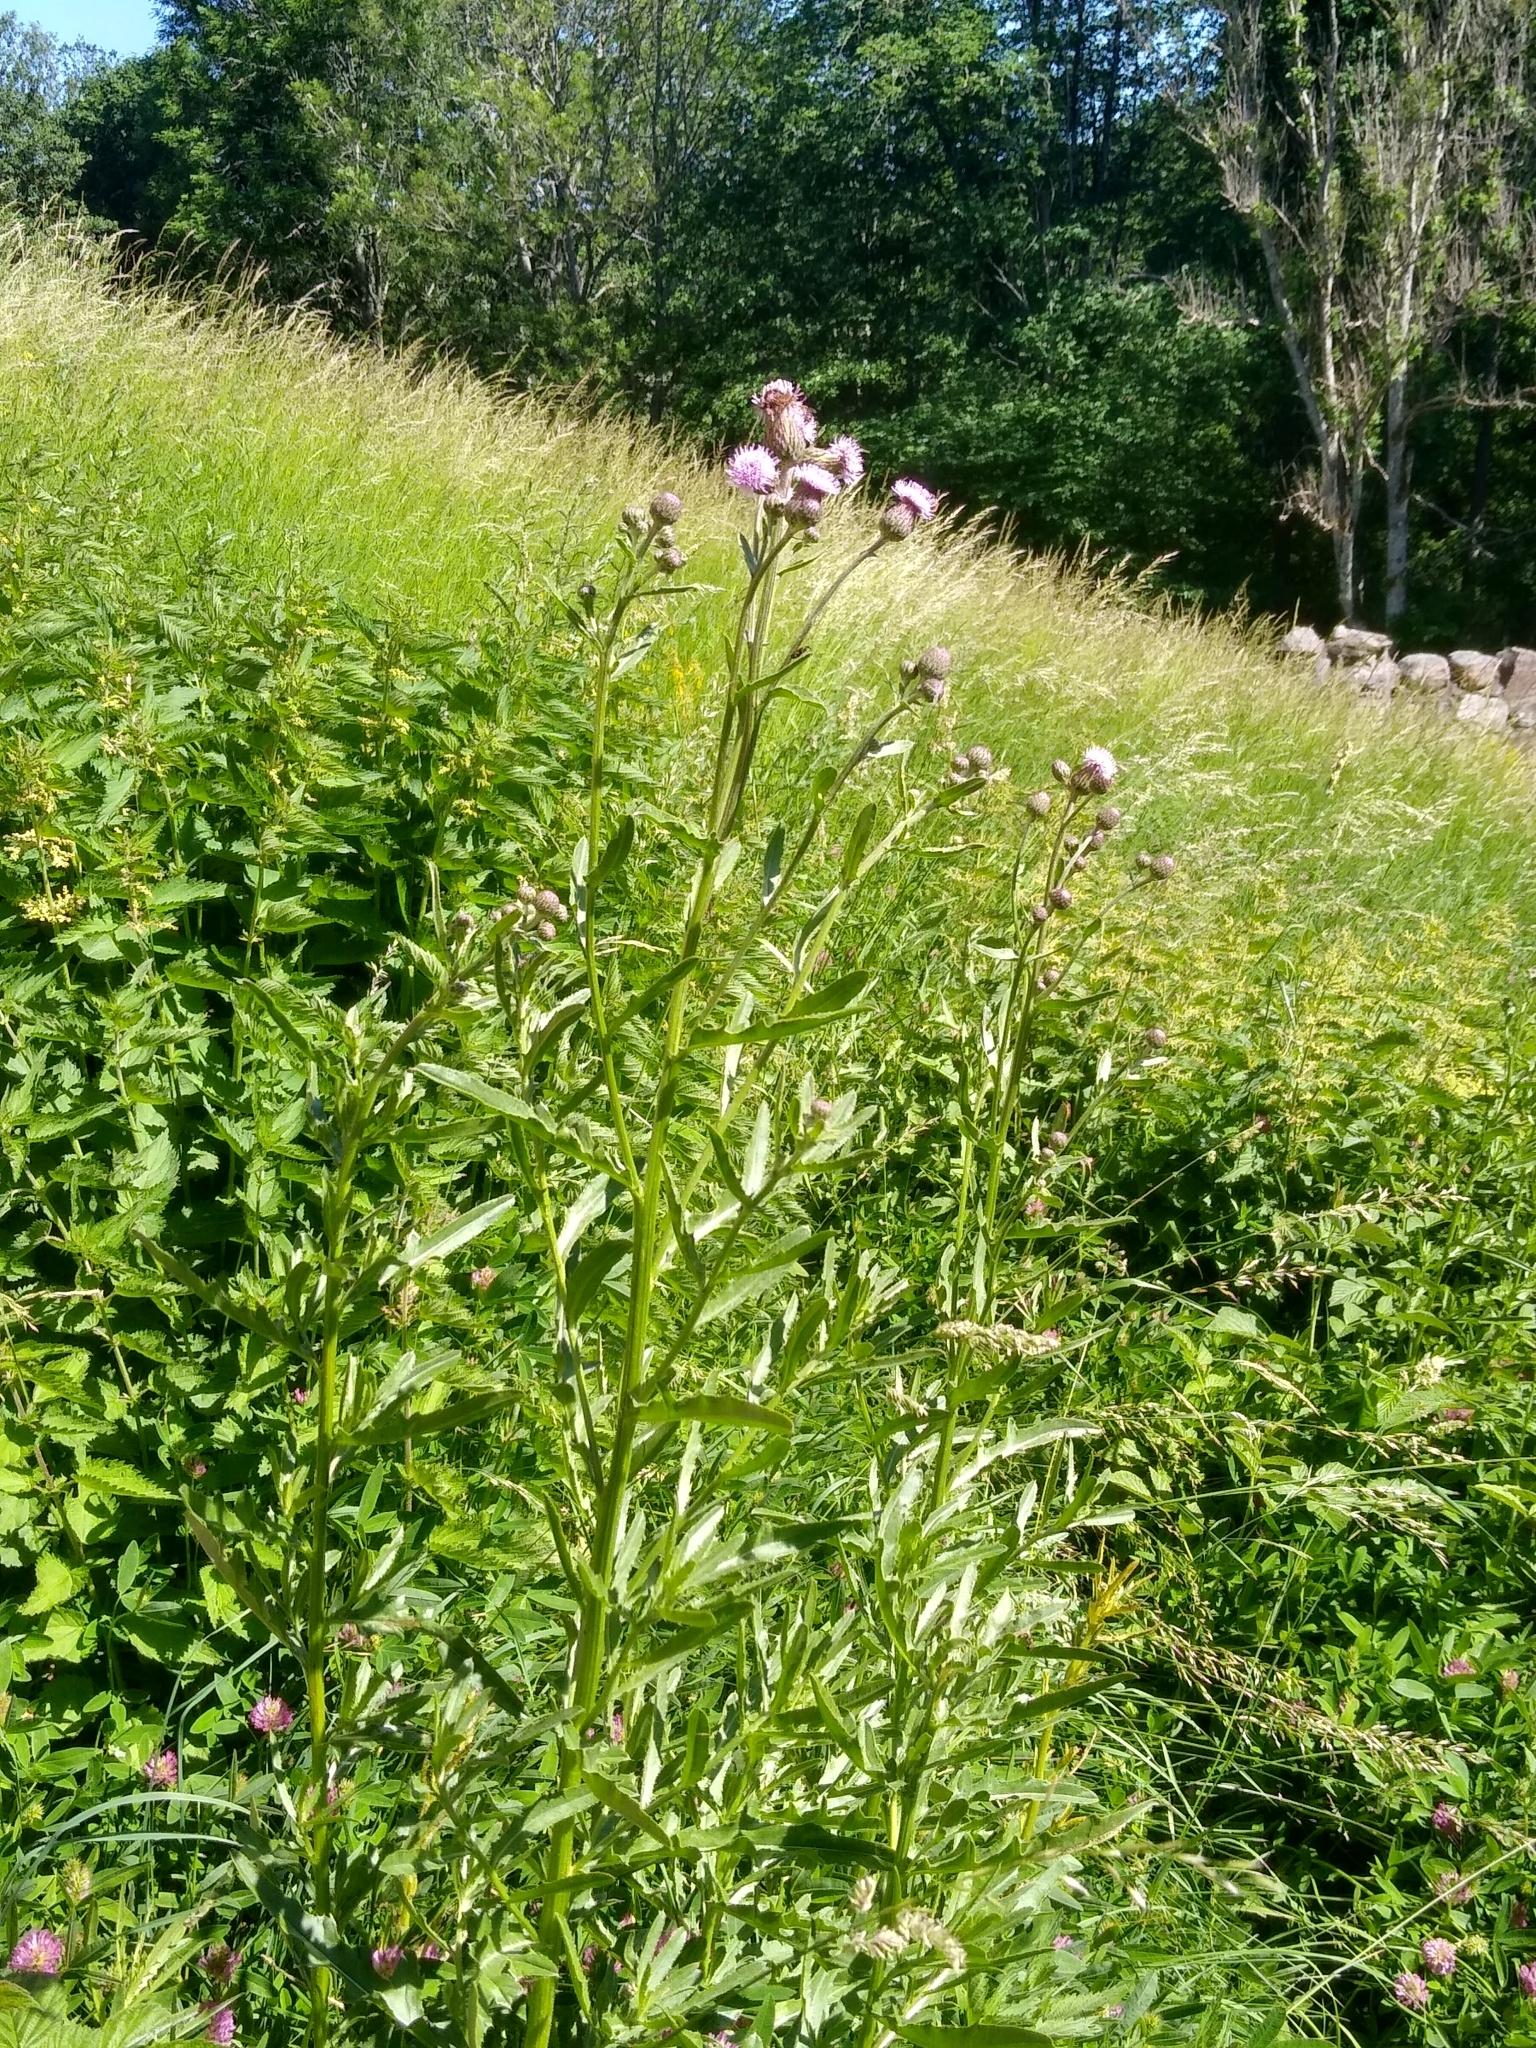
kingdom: Plantae
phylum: Tracheophyta
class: Magnoliopsida
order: Asterales
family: Asteraceae
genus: Cirsium
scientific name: Cirsium arvense
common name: Creeping thistle
